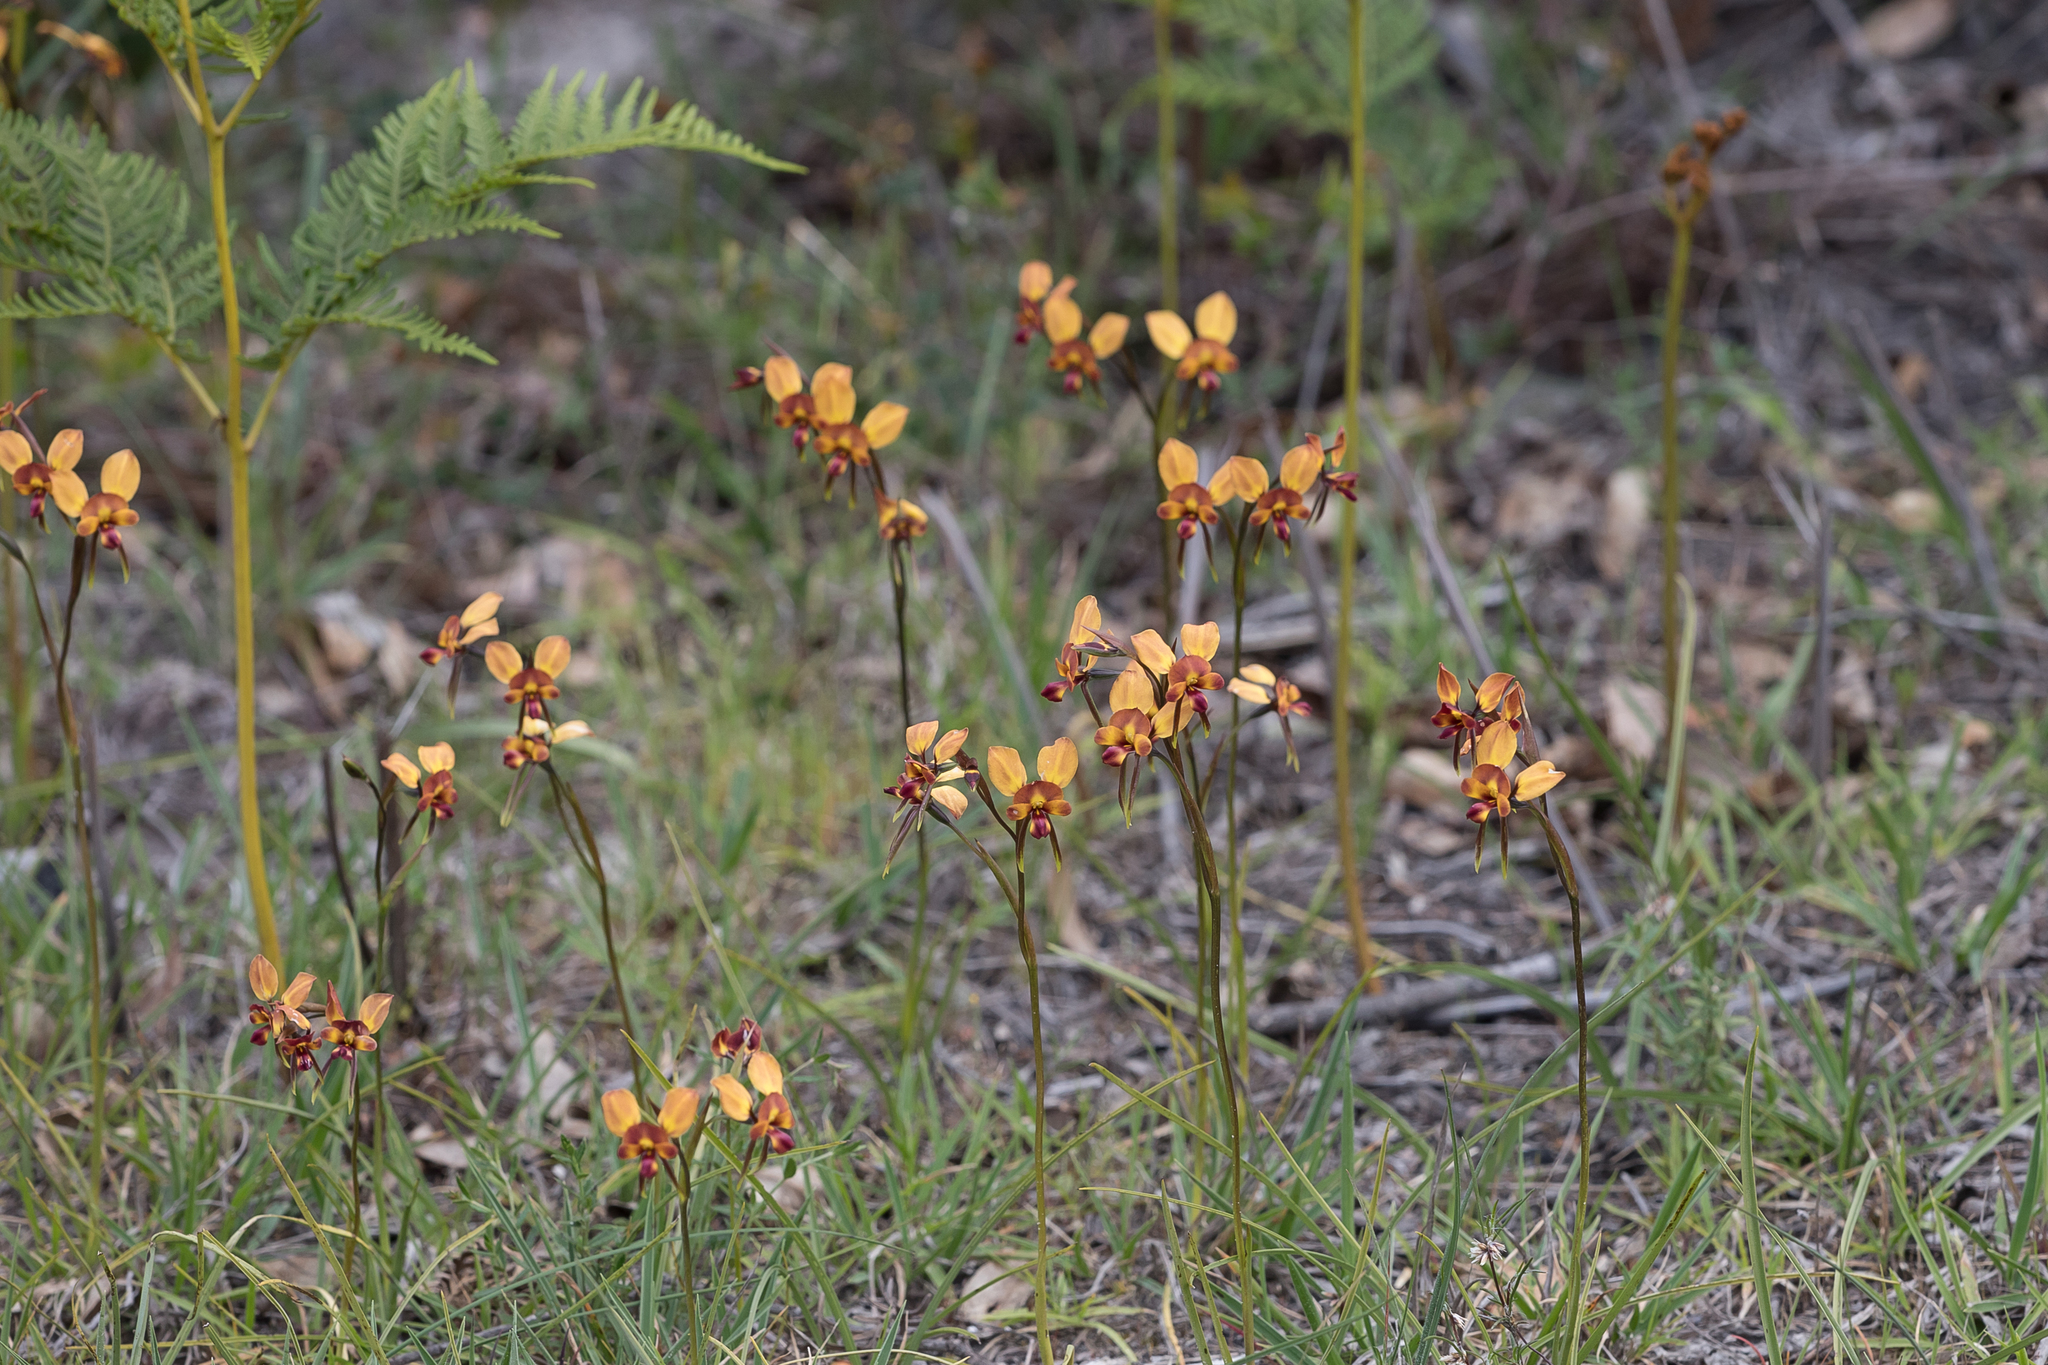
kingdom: Plantae
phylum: Tracheophyta
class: Liliopsida
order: Asparagales
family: Orchidaceae
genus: Diuris
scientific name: Diuris orientis
